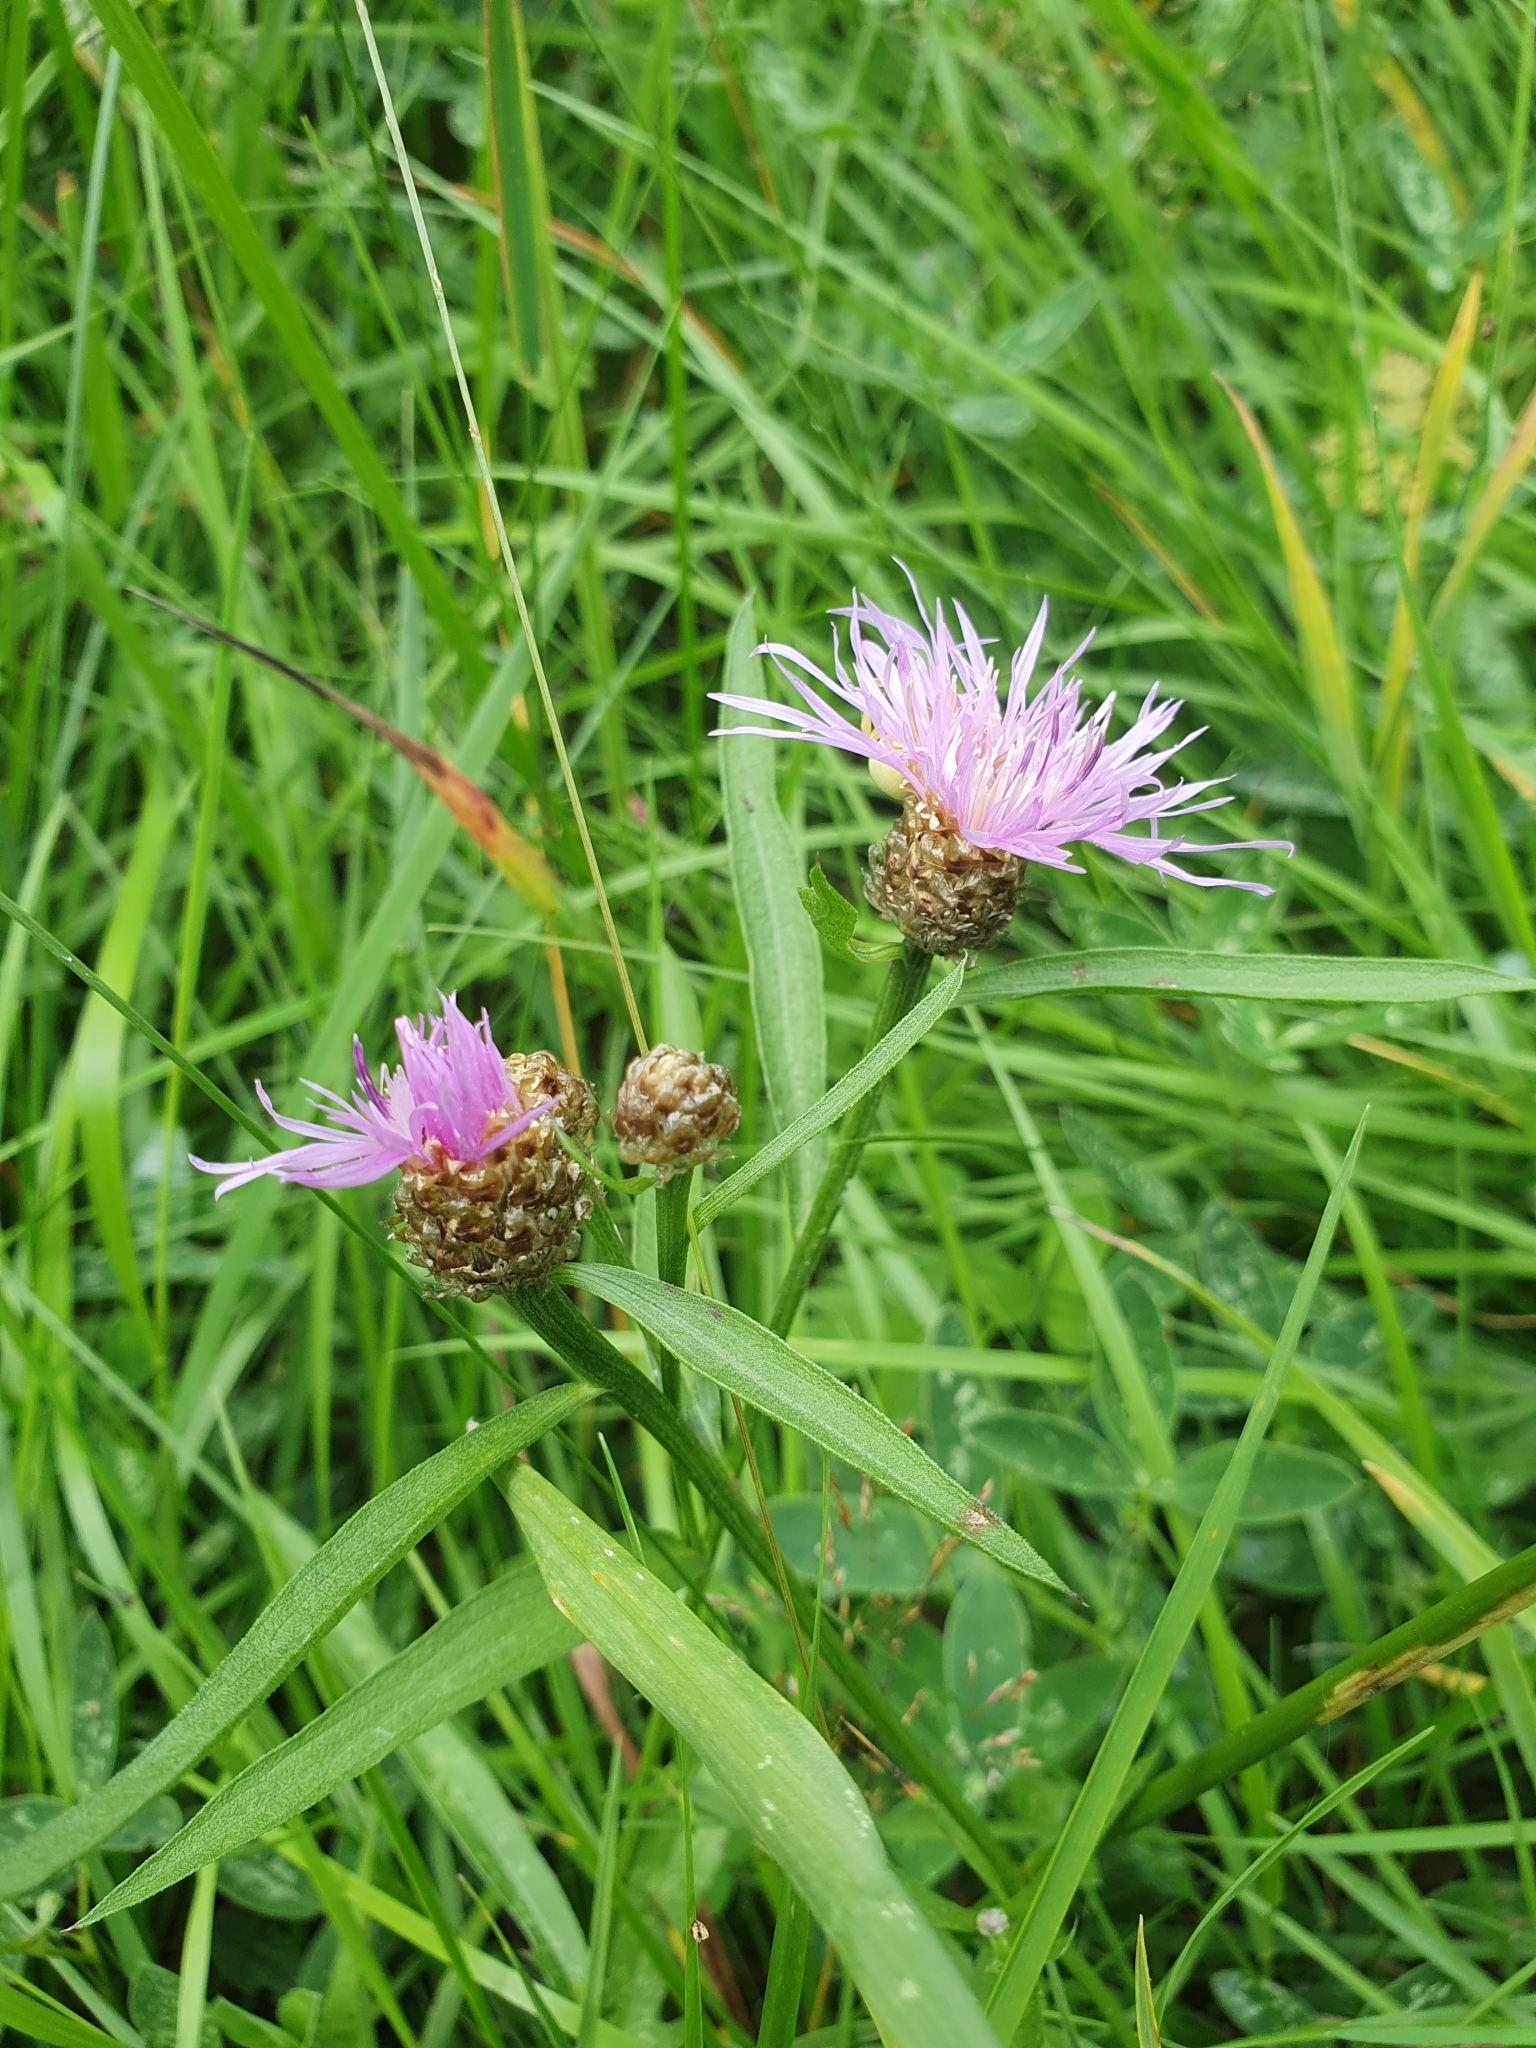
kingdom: Plantae
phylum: Tracheophyta
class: Magnoliopsida
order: Asterales
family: Asteraceae
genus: Centaurea
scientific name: Centaurea jacea
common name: Brown knapweed
